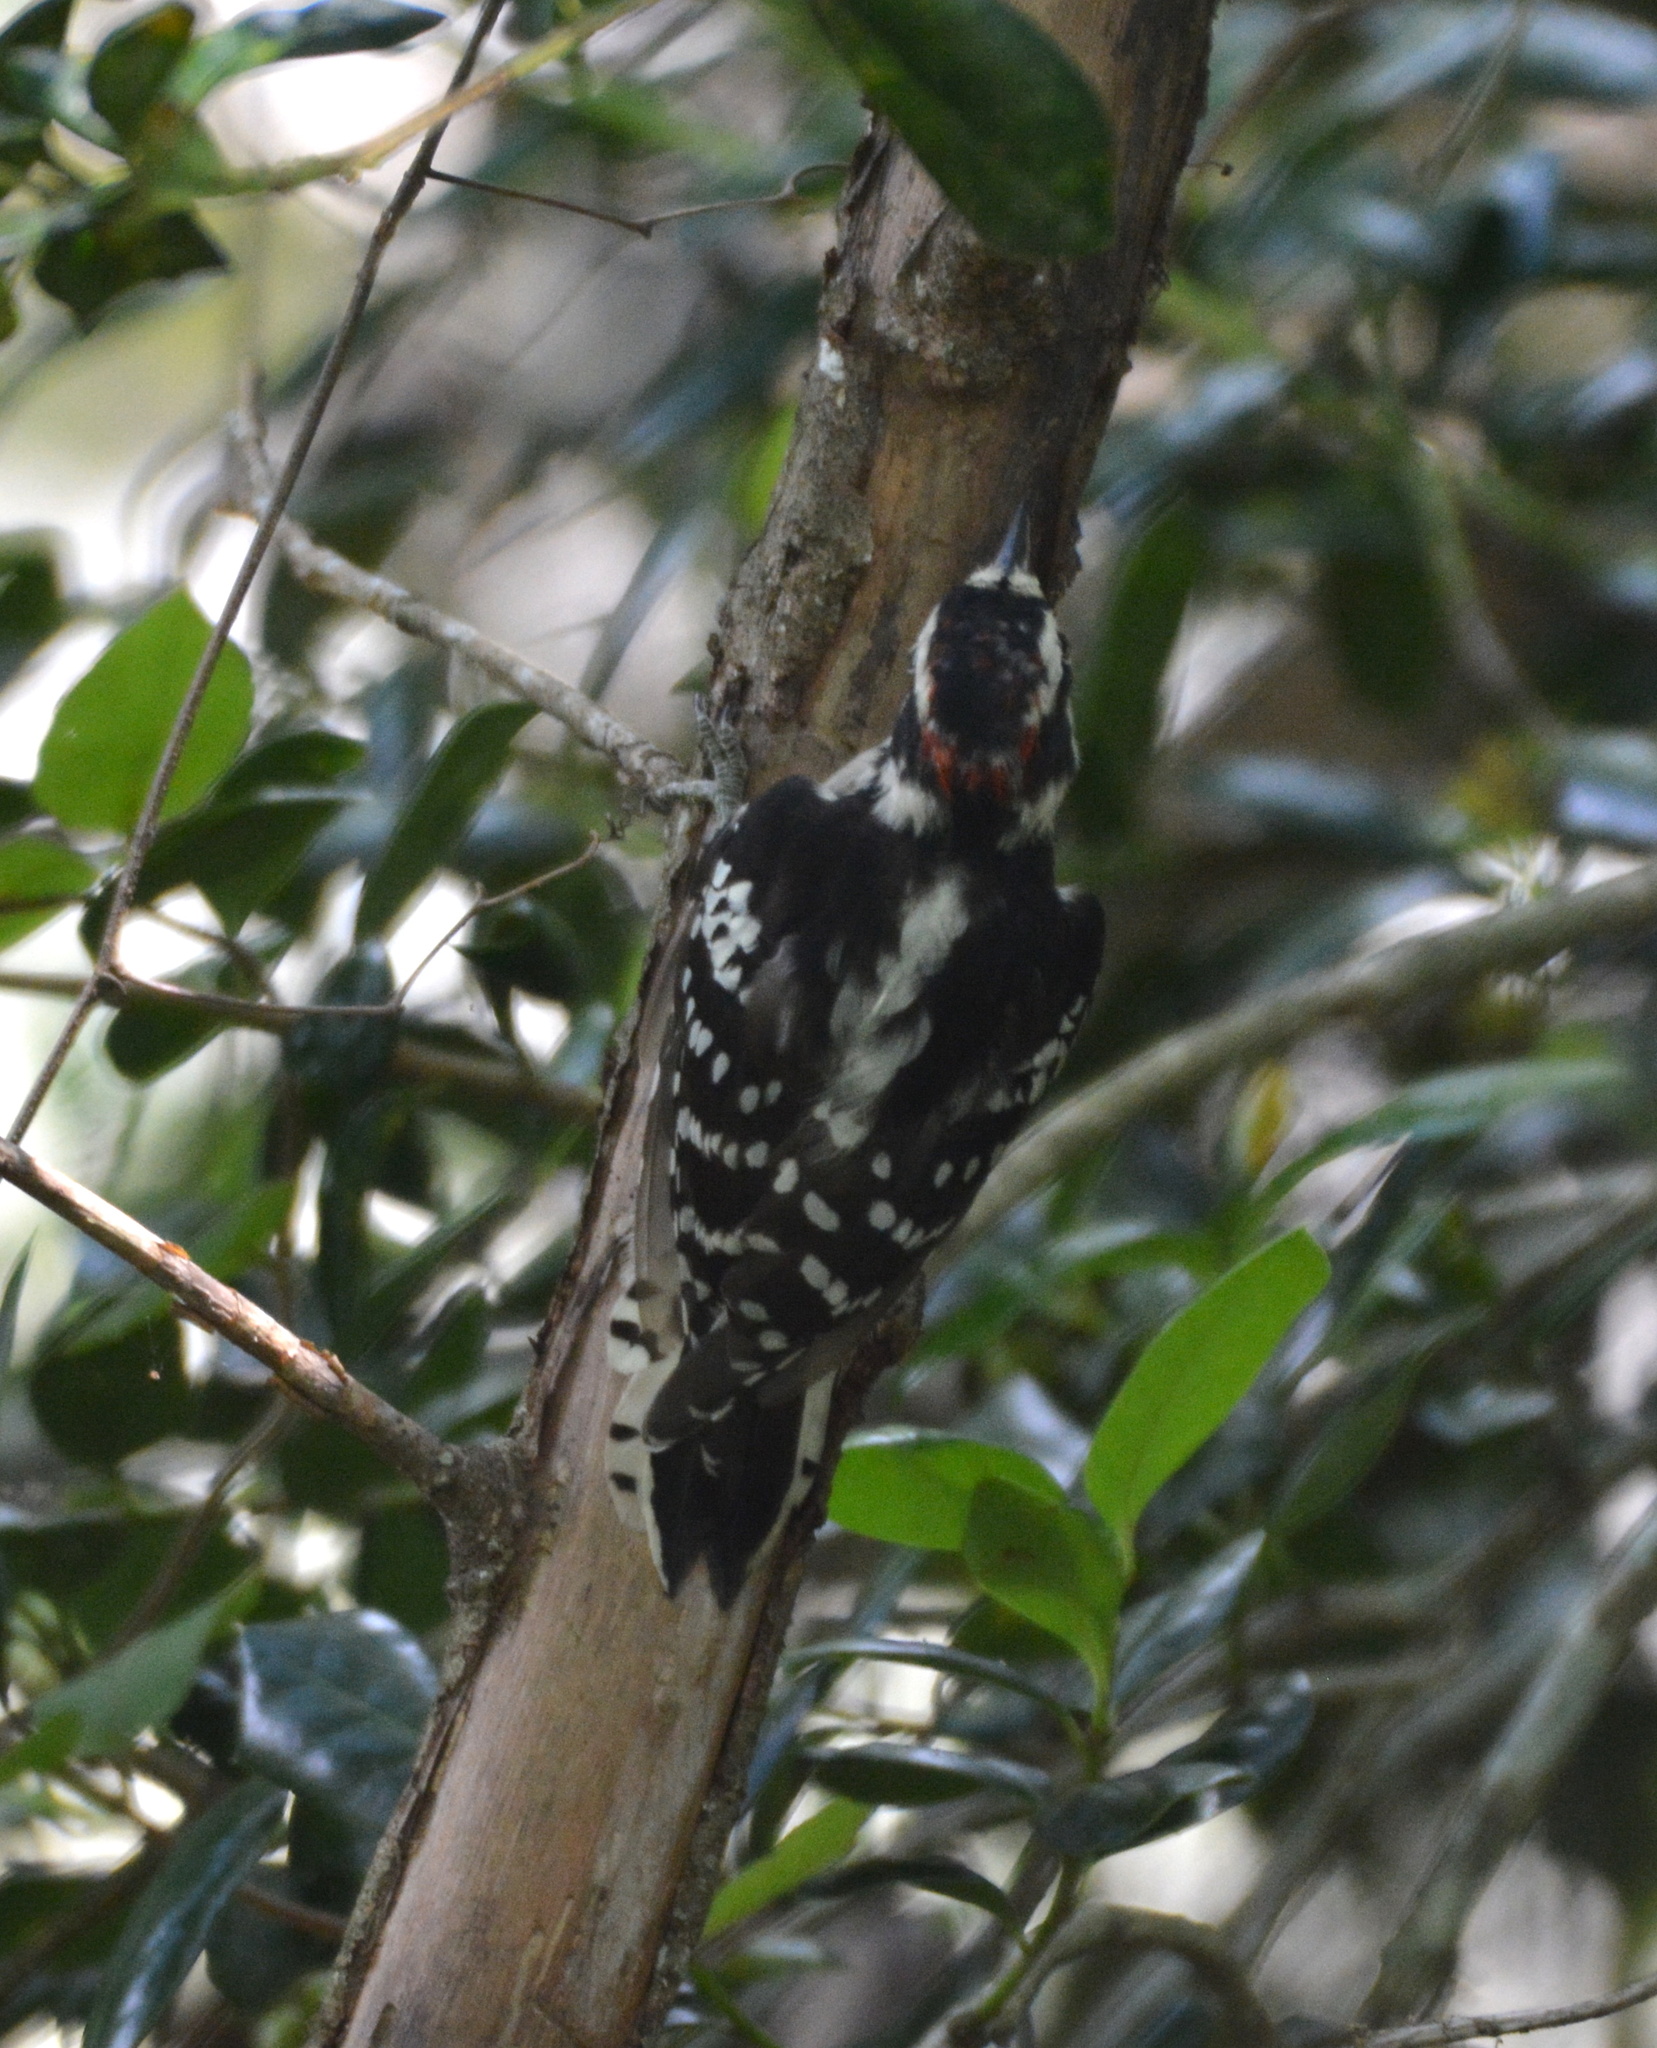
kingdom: Animalia
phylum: Chordata
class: Aves
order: Piciformes
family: Picidae
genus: Dryobates
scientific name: Dryobates pubescens
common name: Downy woodpecker
